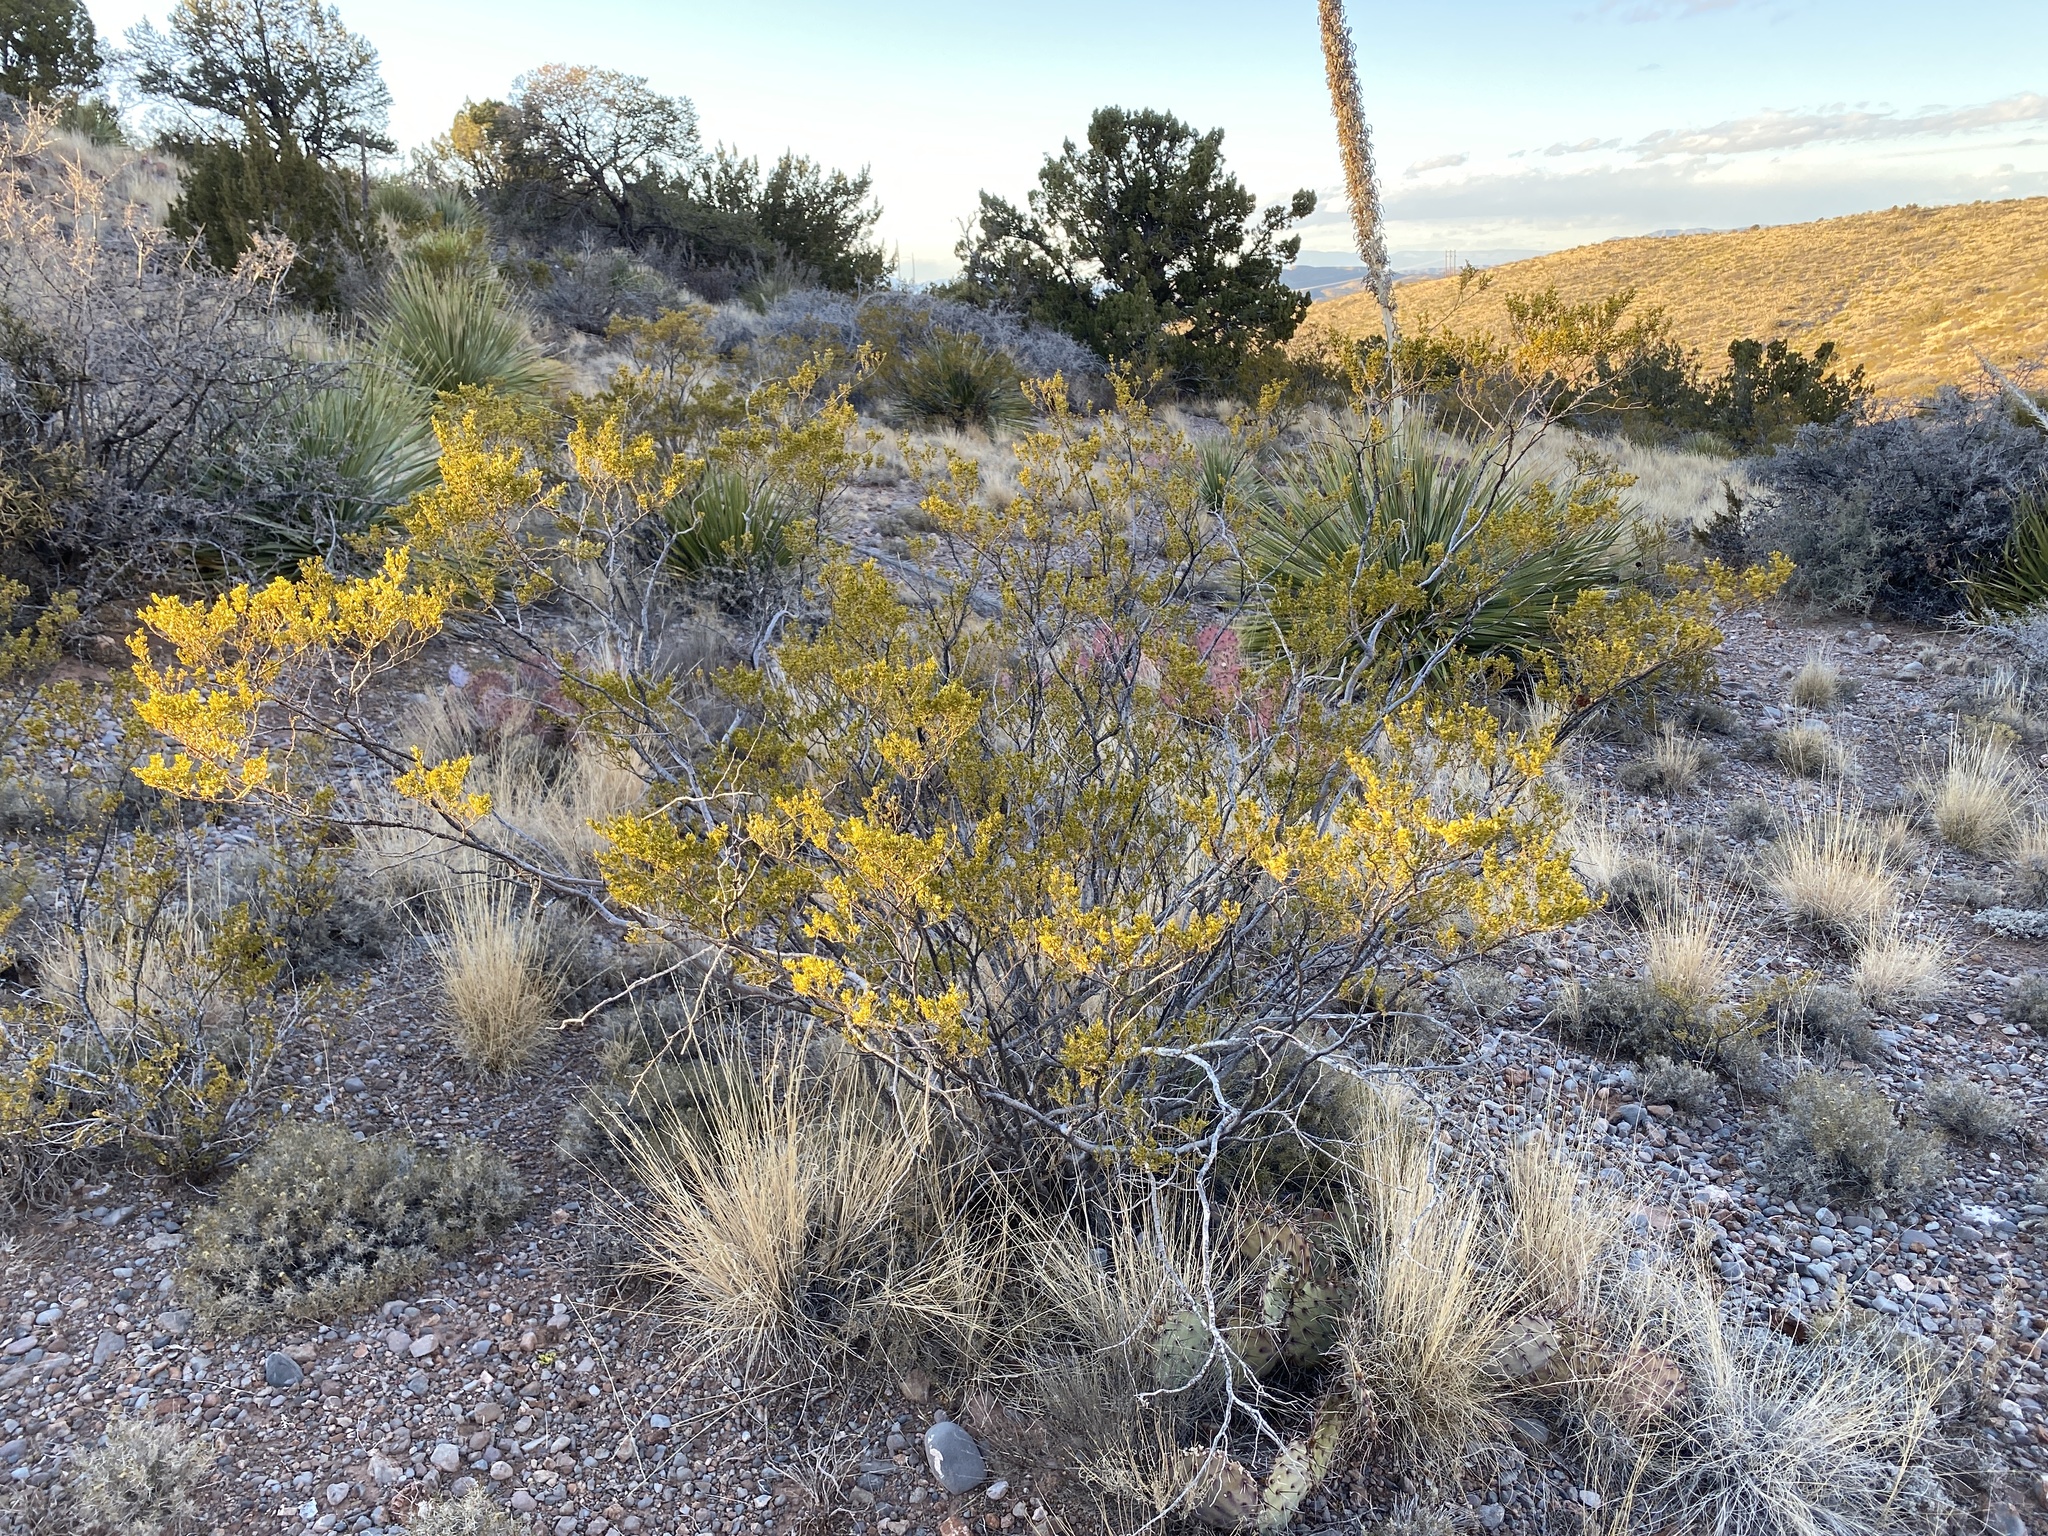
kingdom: Plantae
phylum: Tracheophyta
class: Magnoliopsida
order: Zygophyllales
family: Zygophyllaceae
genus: Larrea
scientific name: Larrea tridentata
